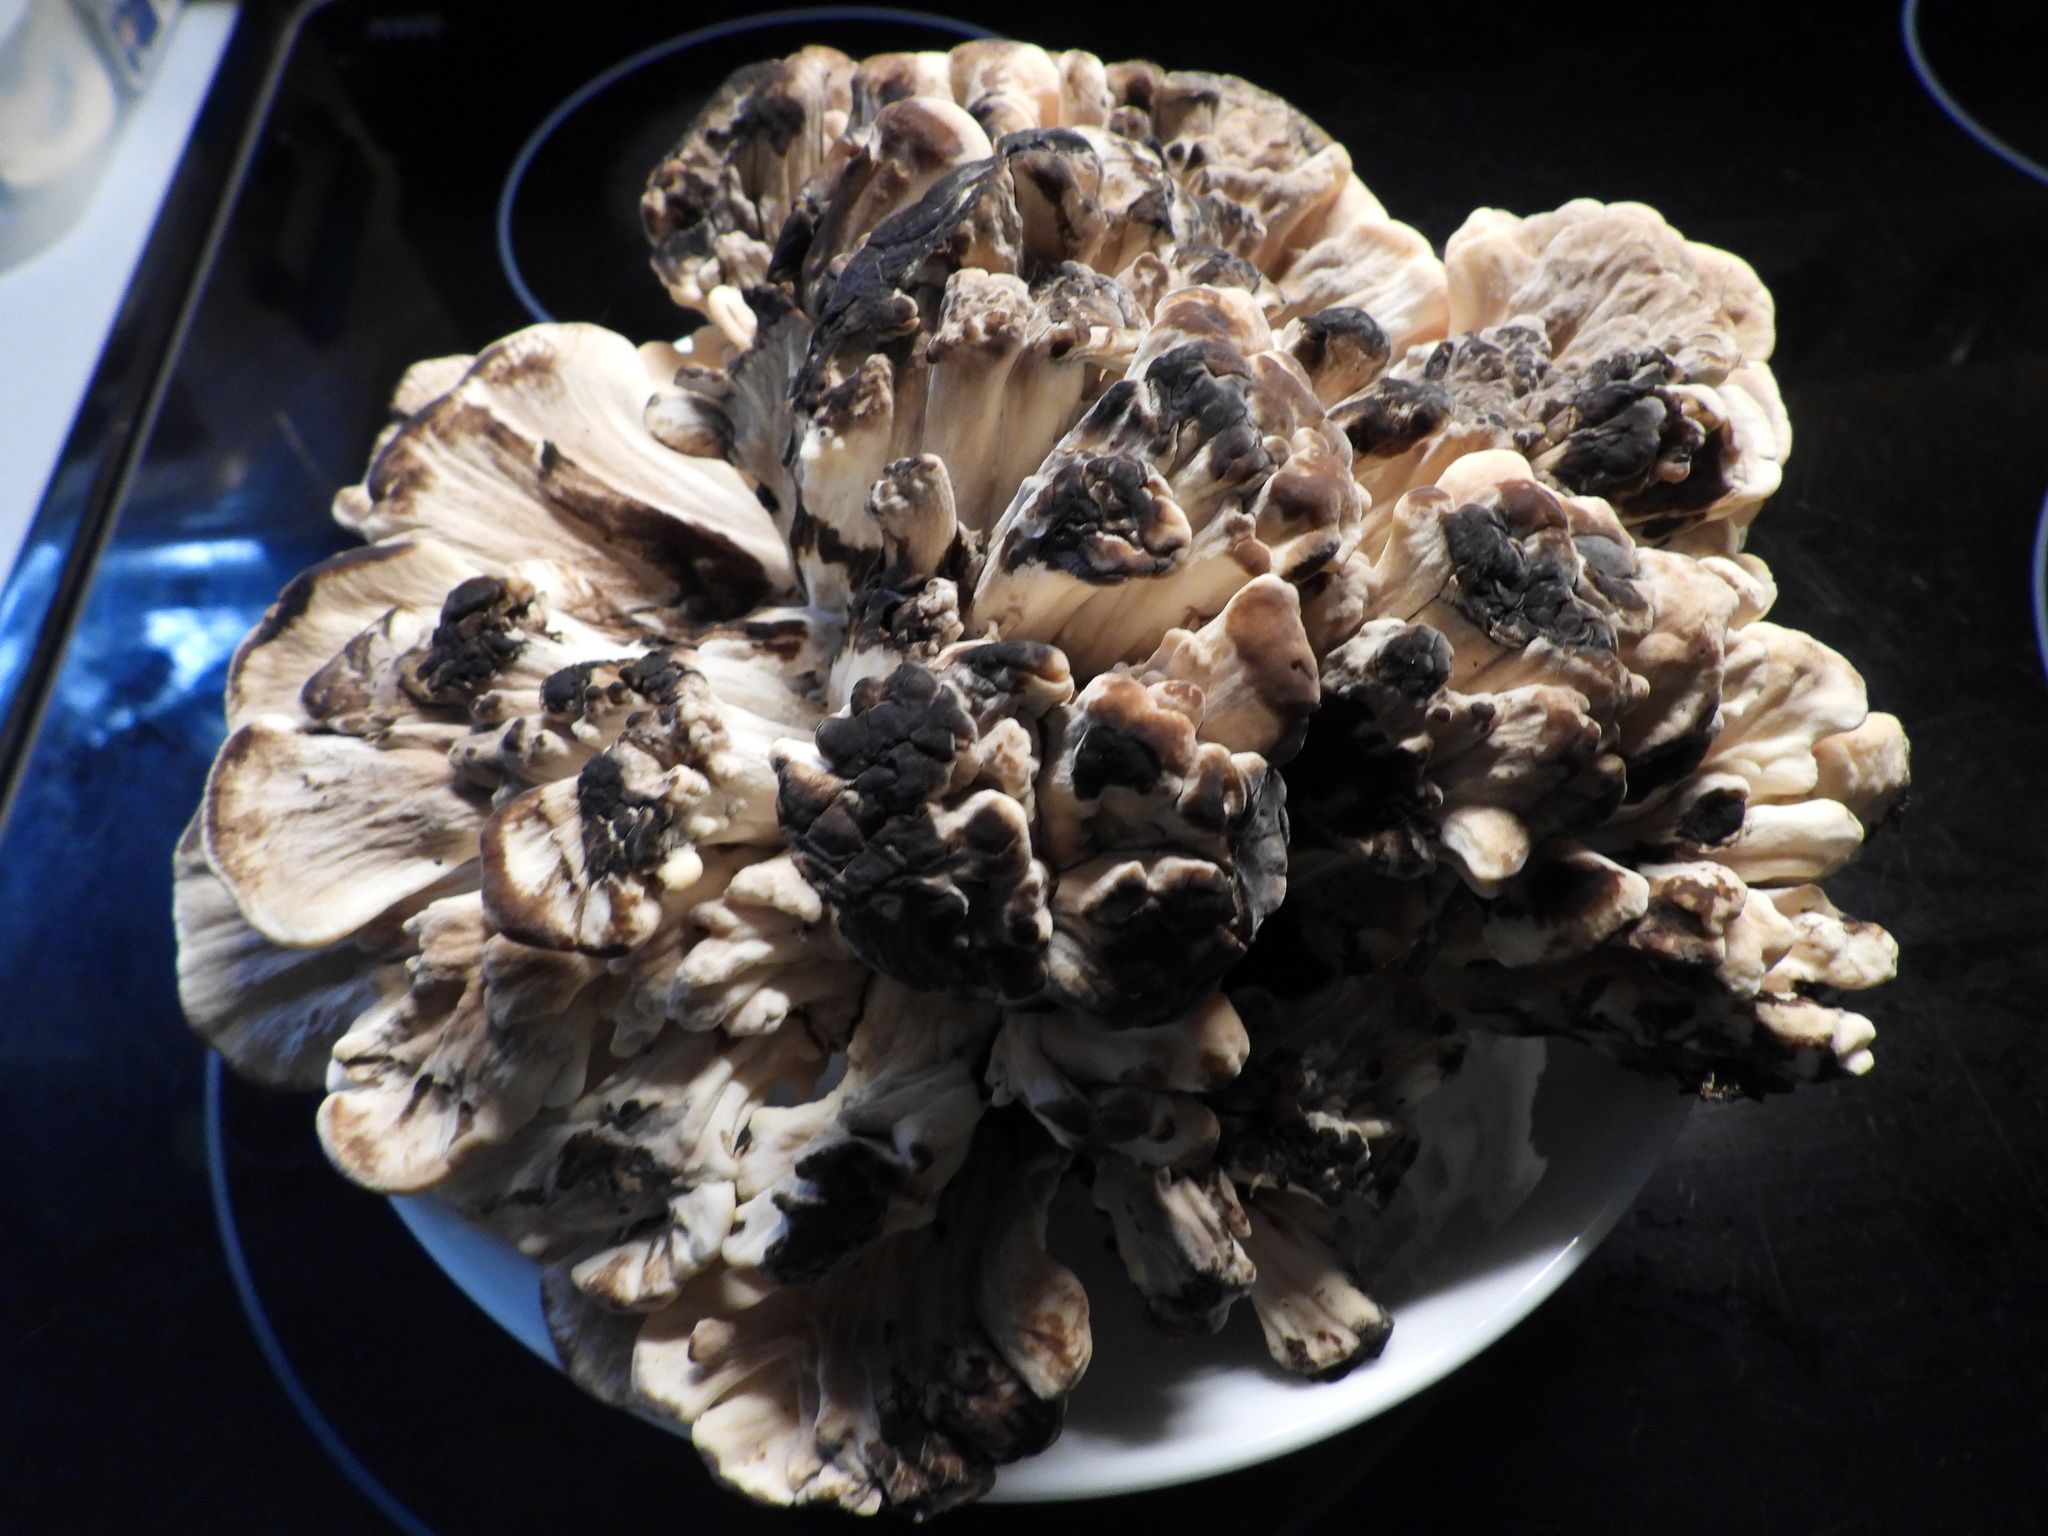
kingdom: Fungi
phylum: Basidiomycota
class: Agaricomycetes
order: Polyporales
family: Meripilaceae
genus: Meripilus
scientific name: Meripilus sumstinei
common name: Black-staining polypore
